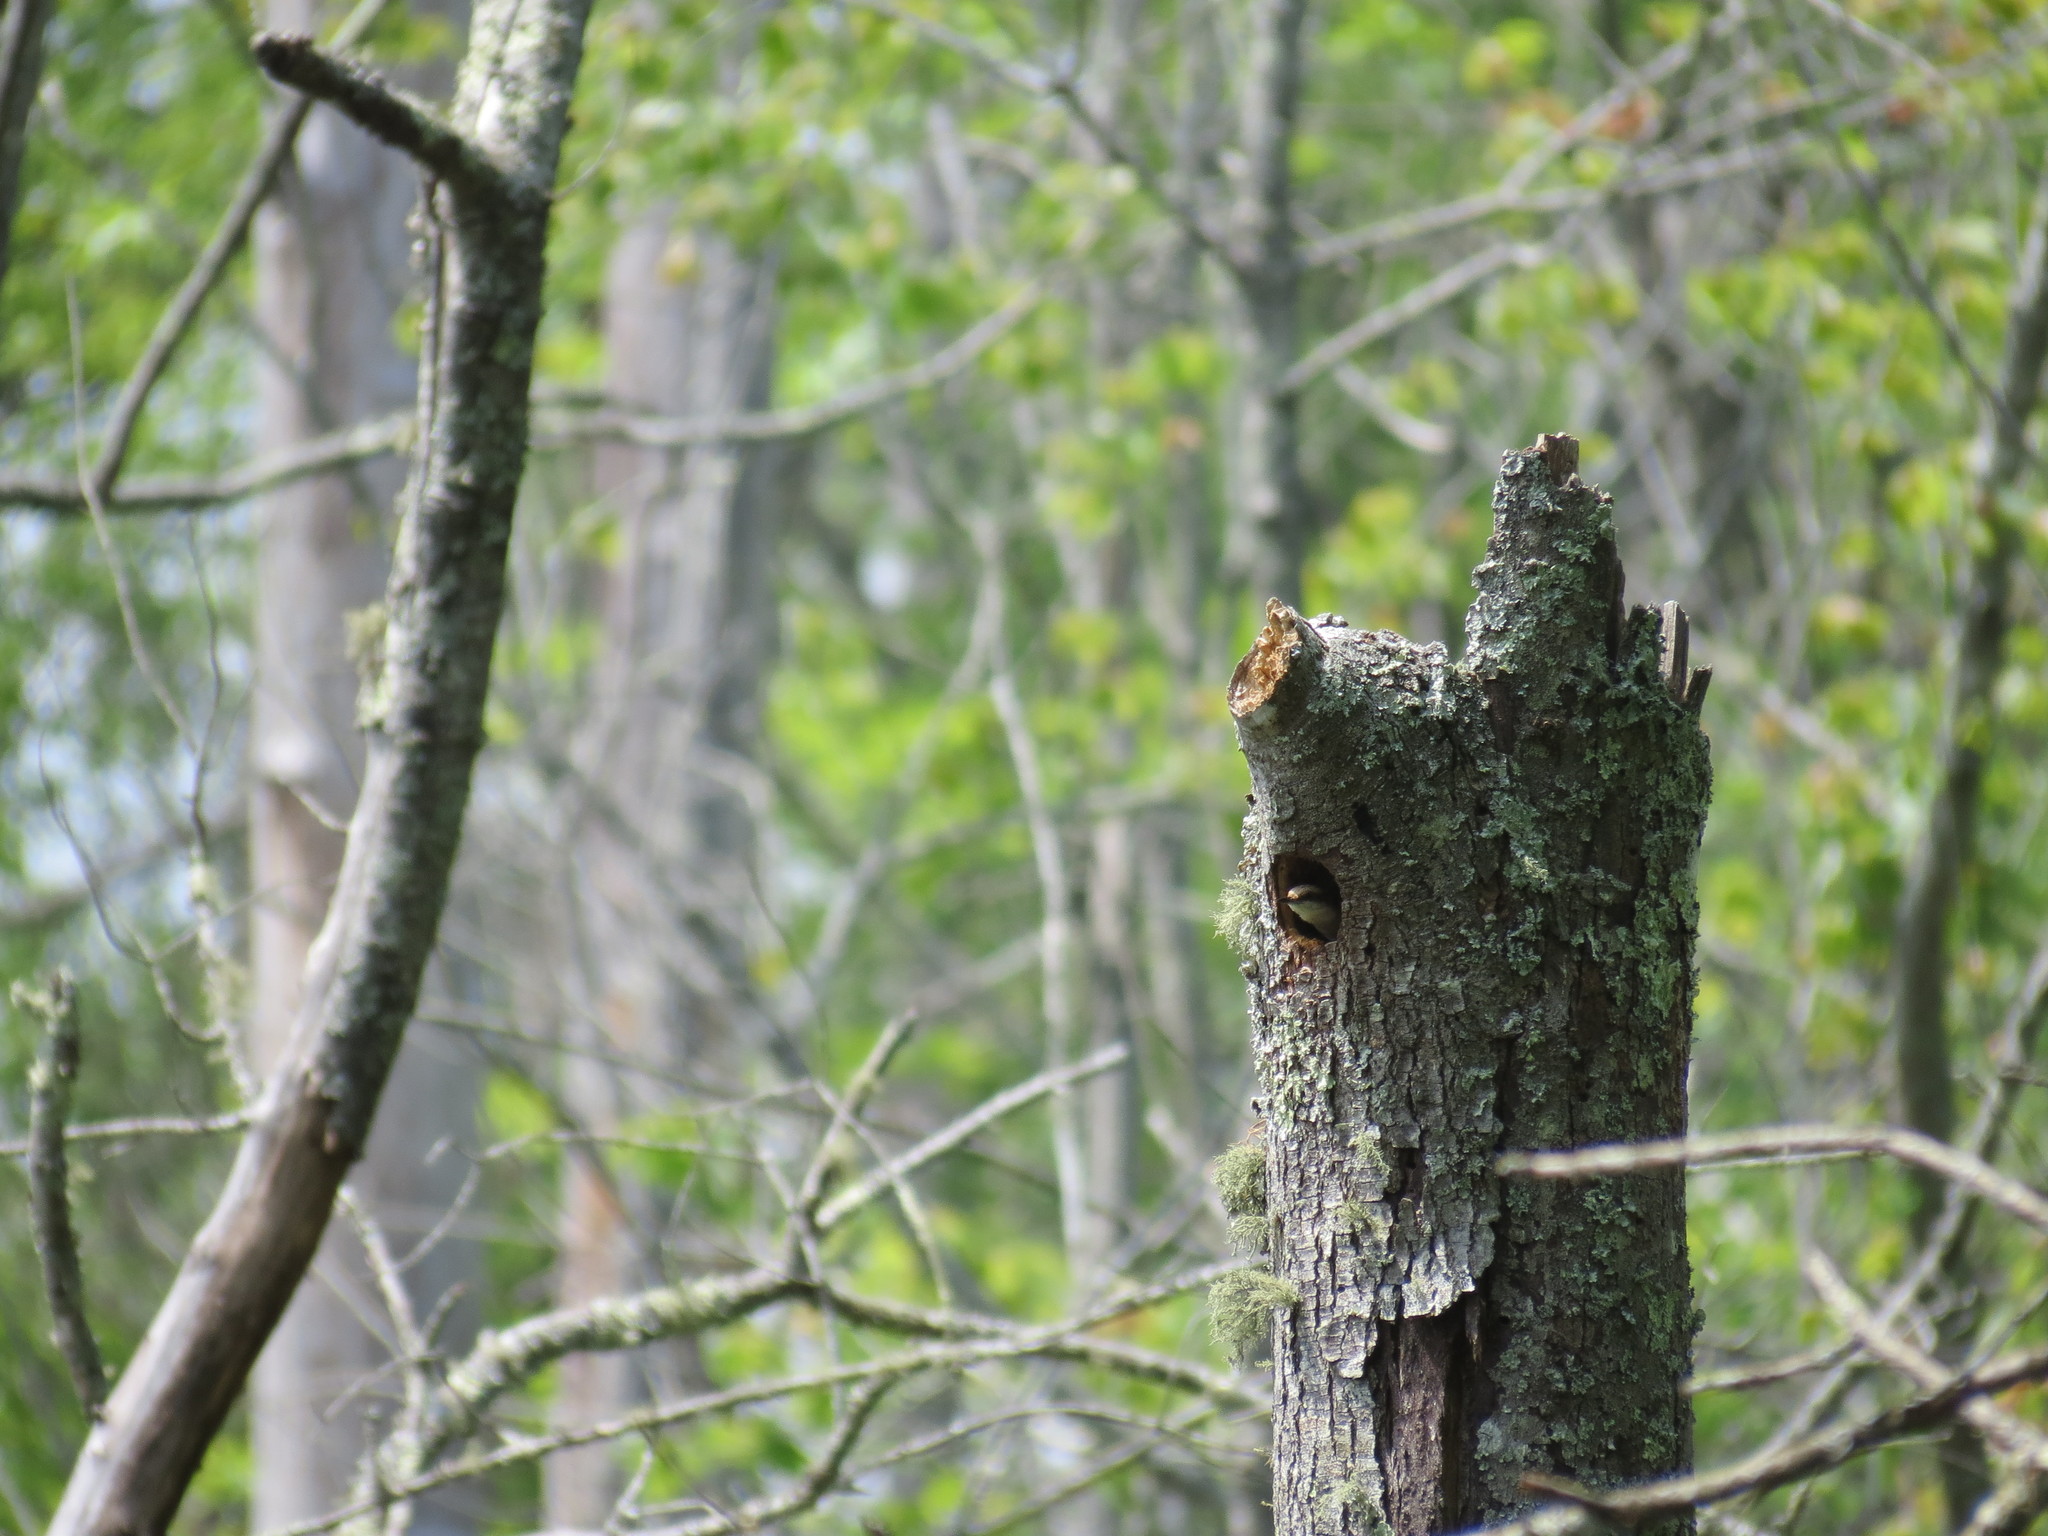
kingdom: Animalia
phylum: Chordata
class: Aves
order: Passeriformes
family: Sittidae
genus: Sitta
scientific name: Sitta pusilla
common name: Brown-headed nuthatch
